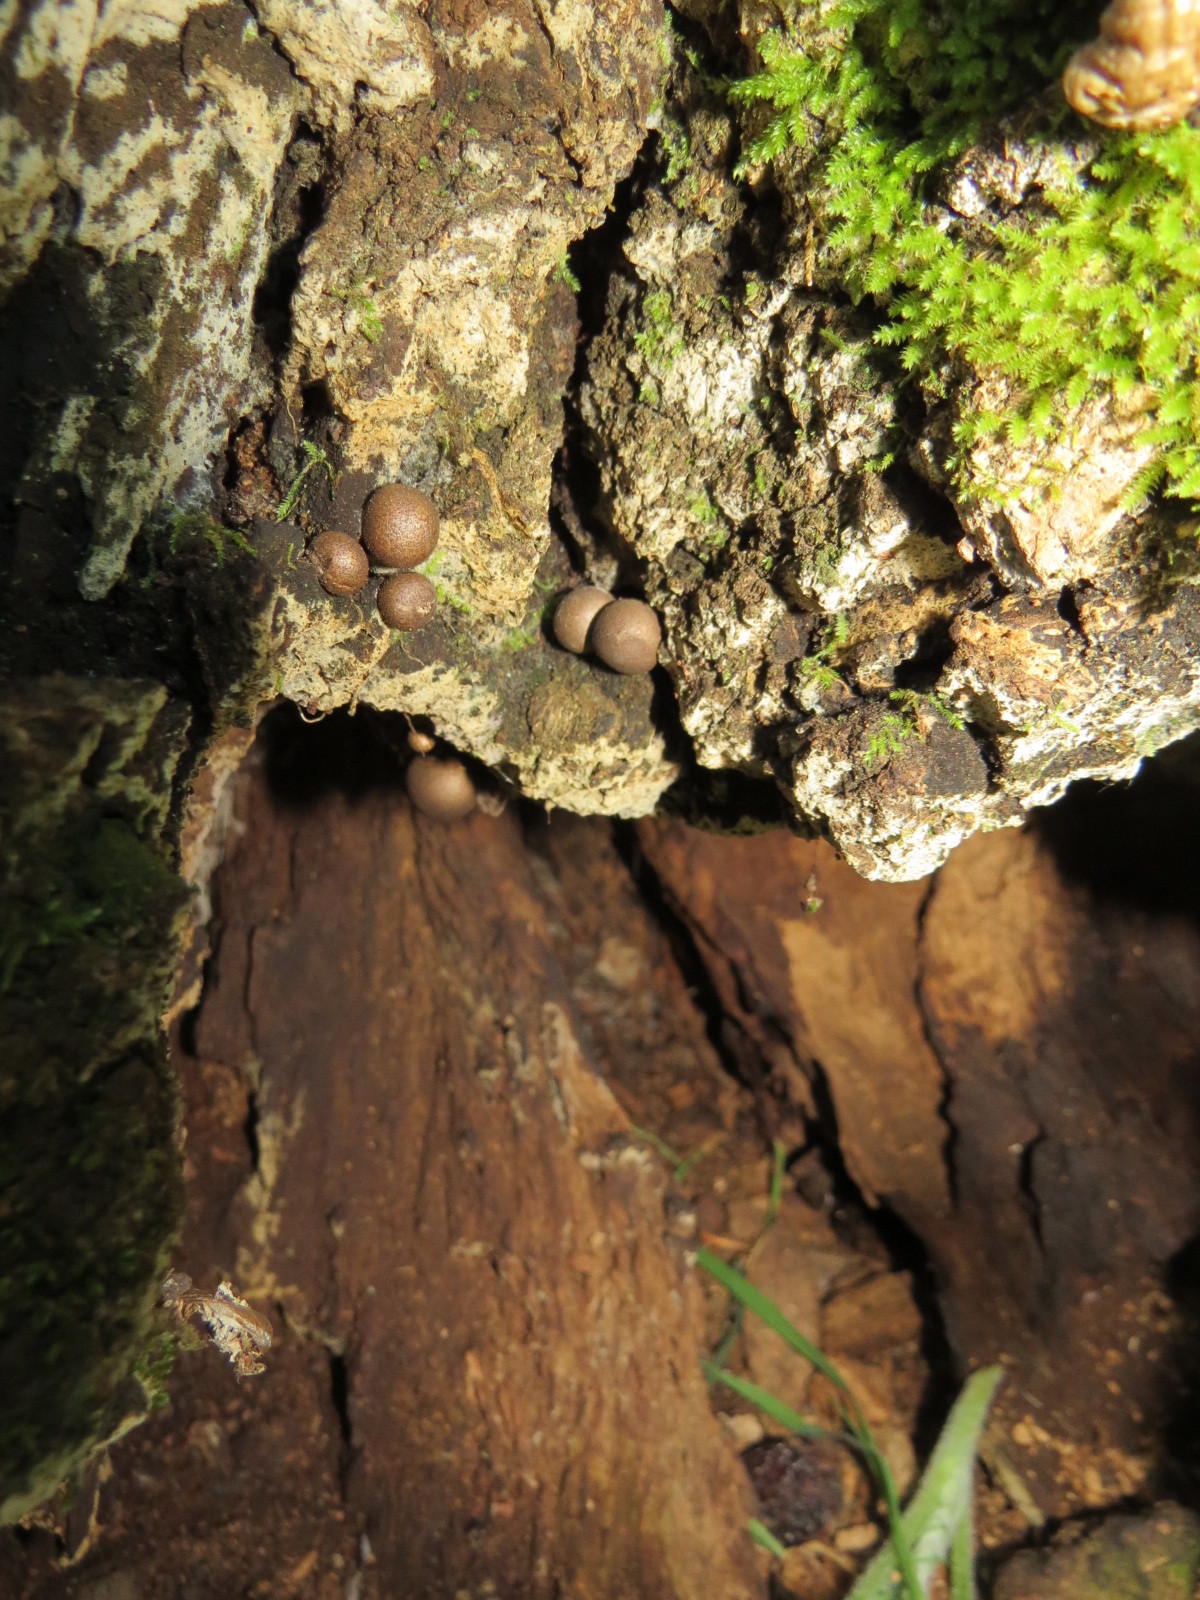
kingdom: Protozoa
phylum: Mycetozoa
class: Myxomycetes
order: Cribrariales
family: Tubiferaceae
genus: Lycogala
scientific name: Lycogala epidendrum
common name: Wolf's milk
